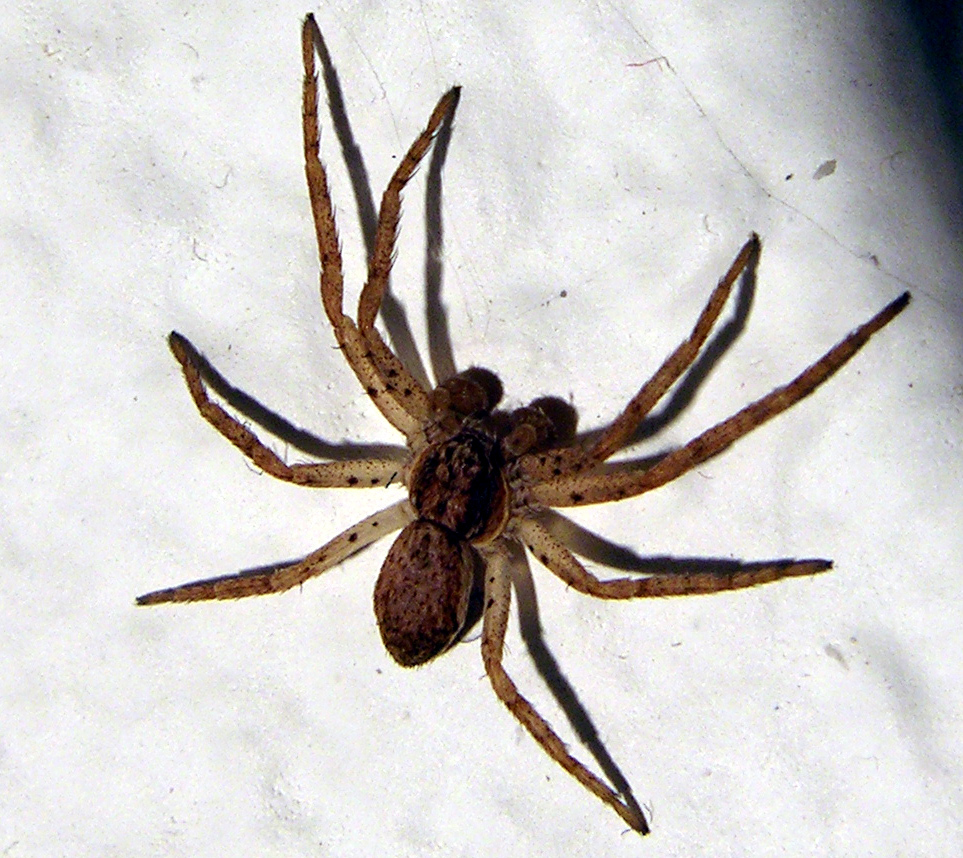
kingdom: Animalia
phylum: Arthropoda
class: Arachnida
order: Araneae
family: Philodromidae
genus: Philodromus
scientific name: Philodromus dispar
